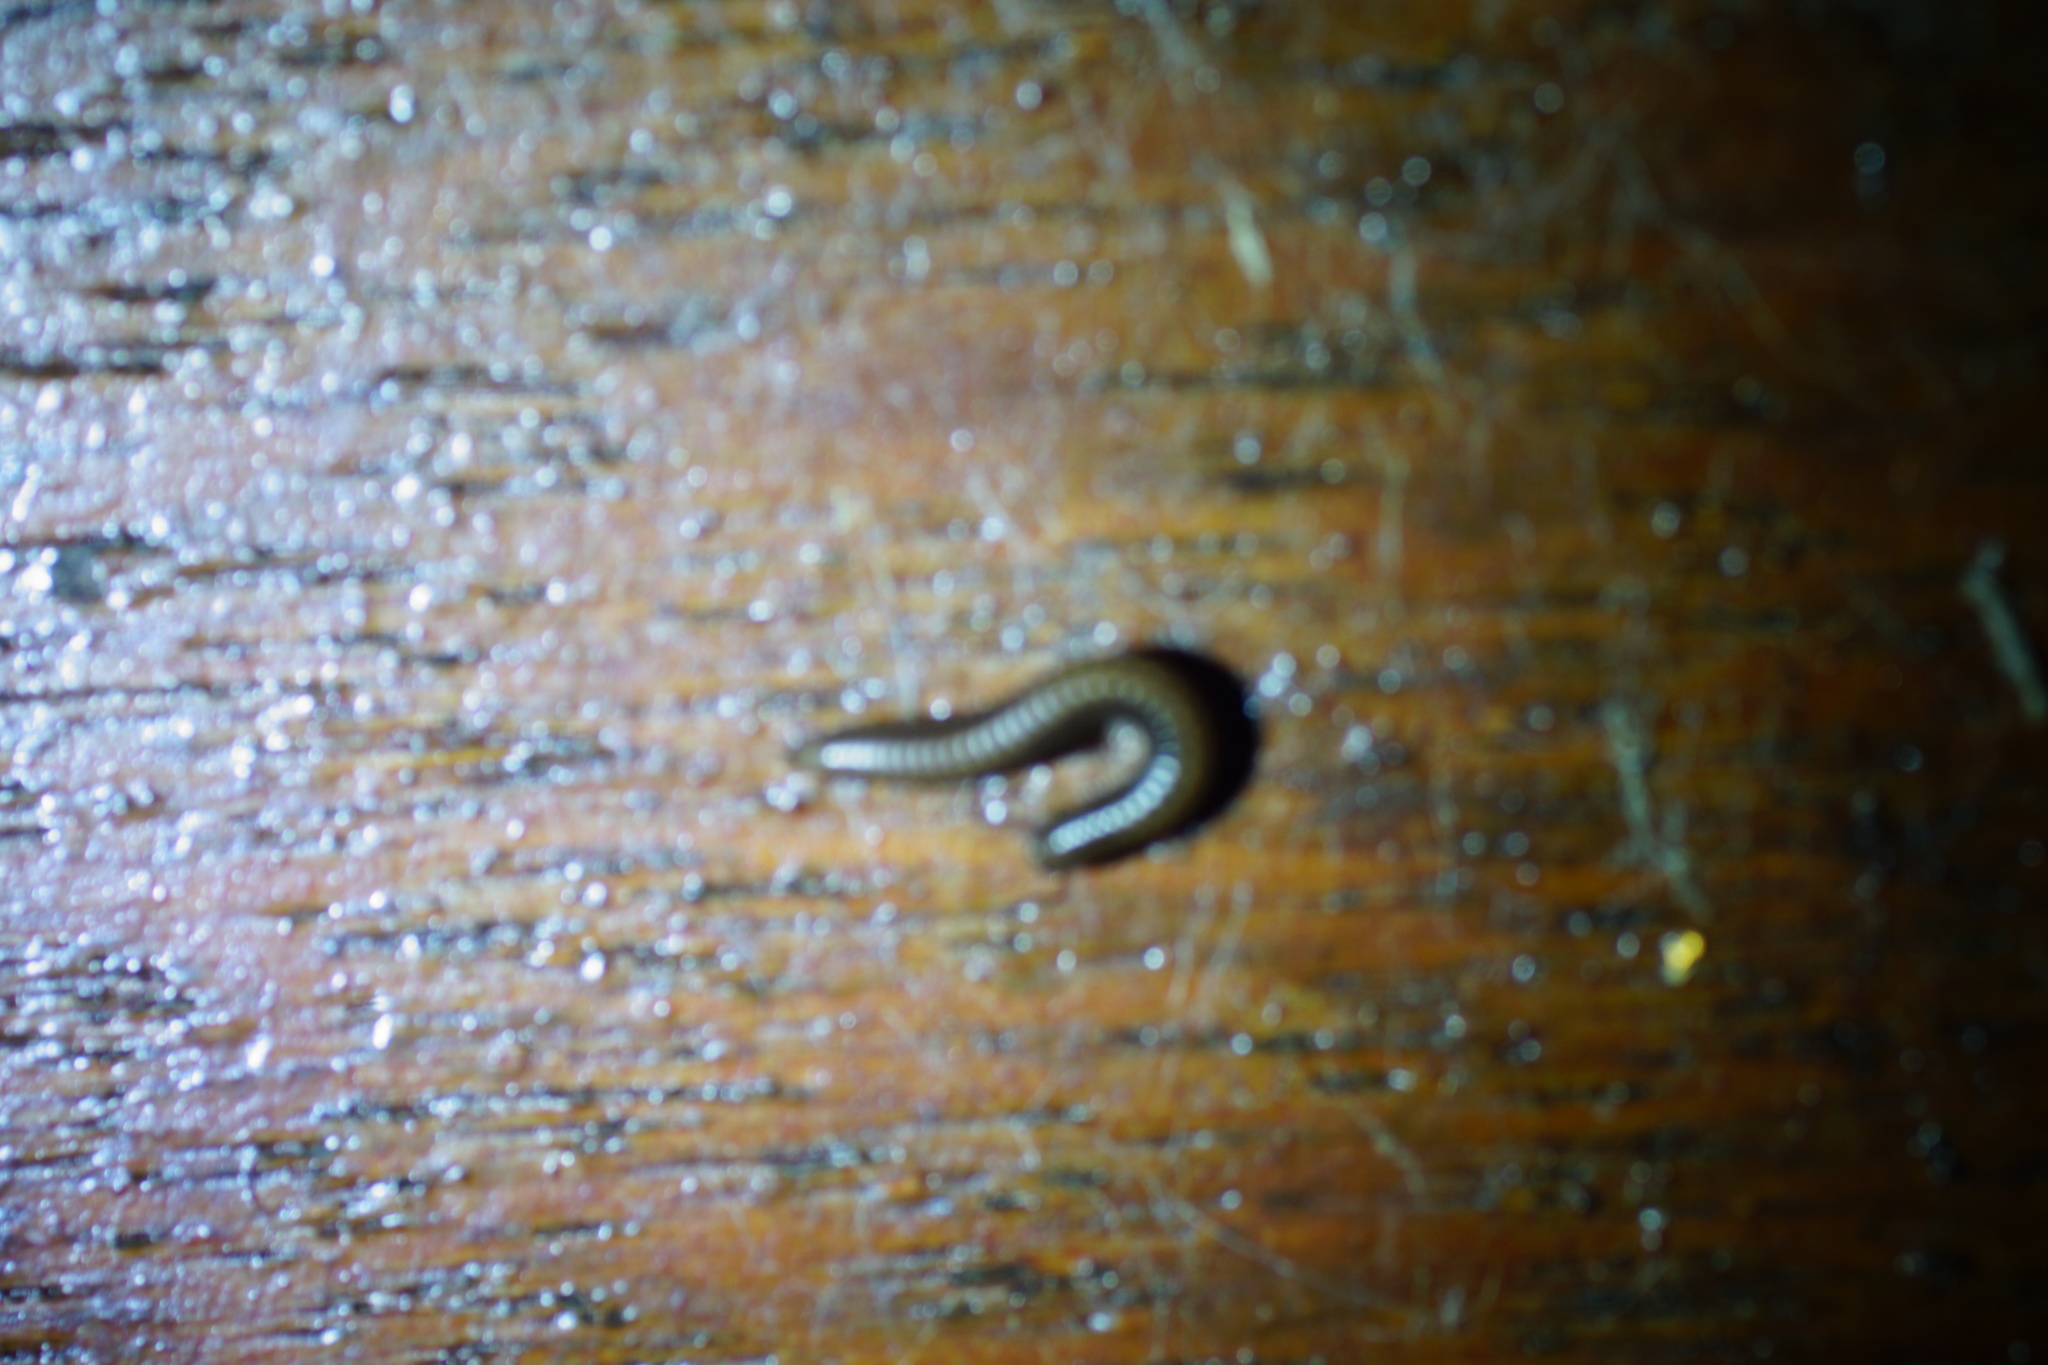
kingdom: Animalia
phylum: Arthropoda
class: Diplopoda
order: Julida
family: Julidae
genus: Ommatoiulus
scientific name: Ommatoiulus moreleti
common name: Portuguese millipede
